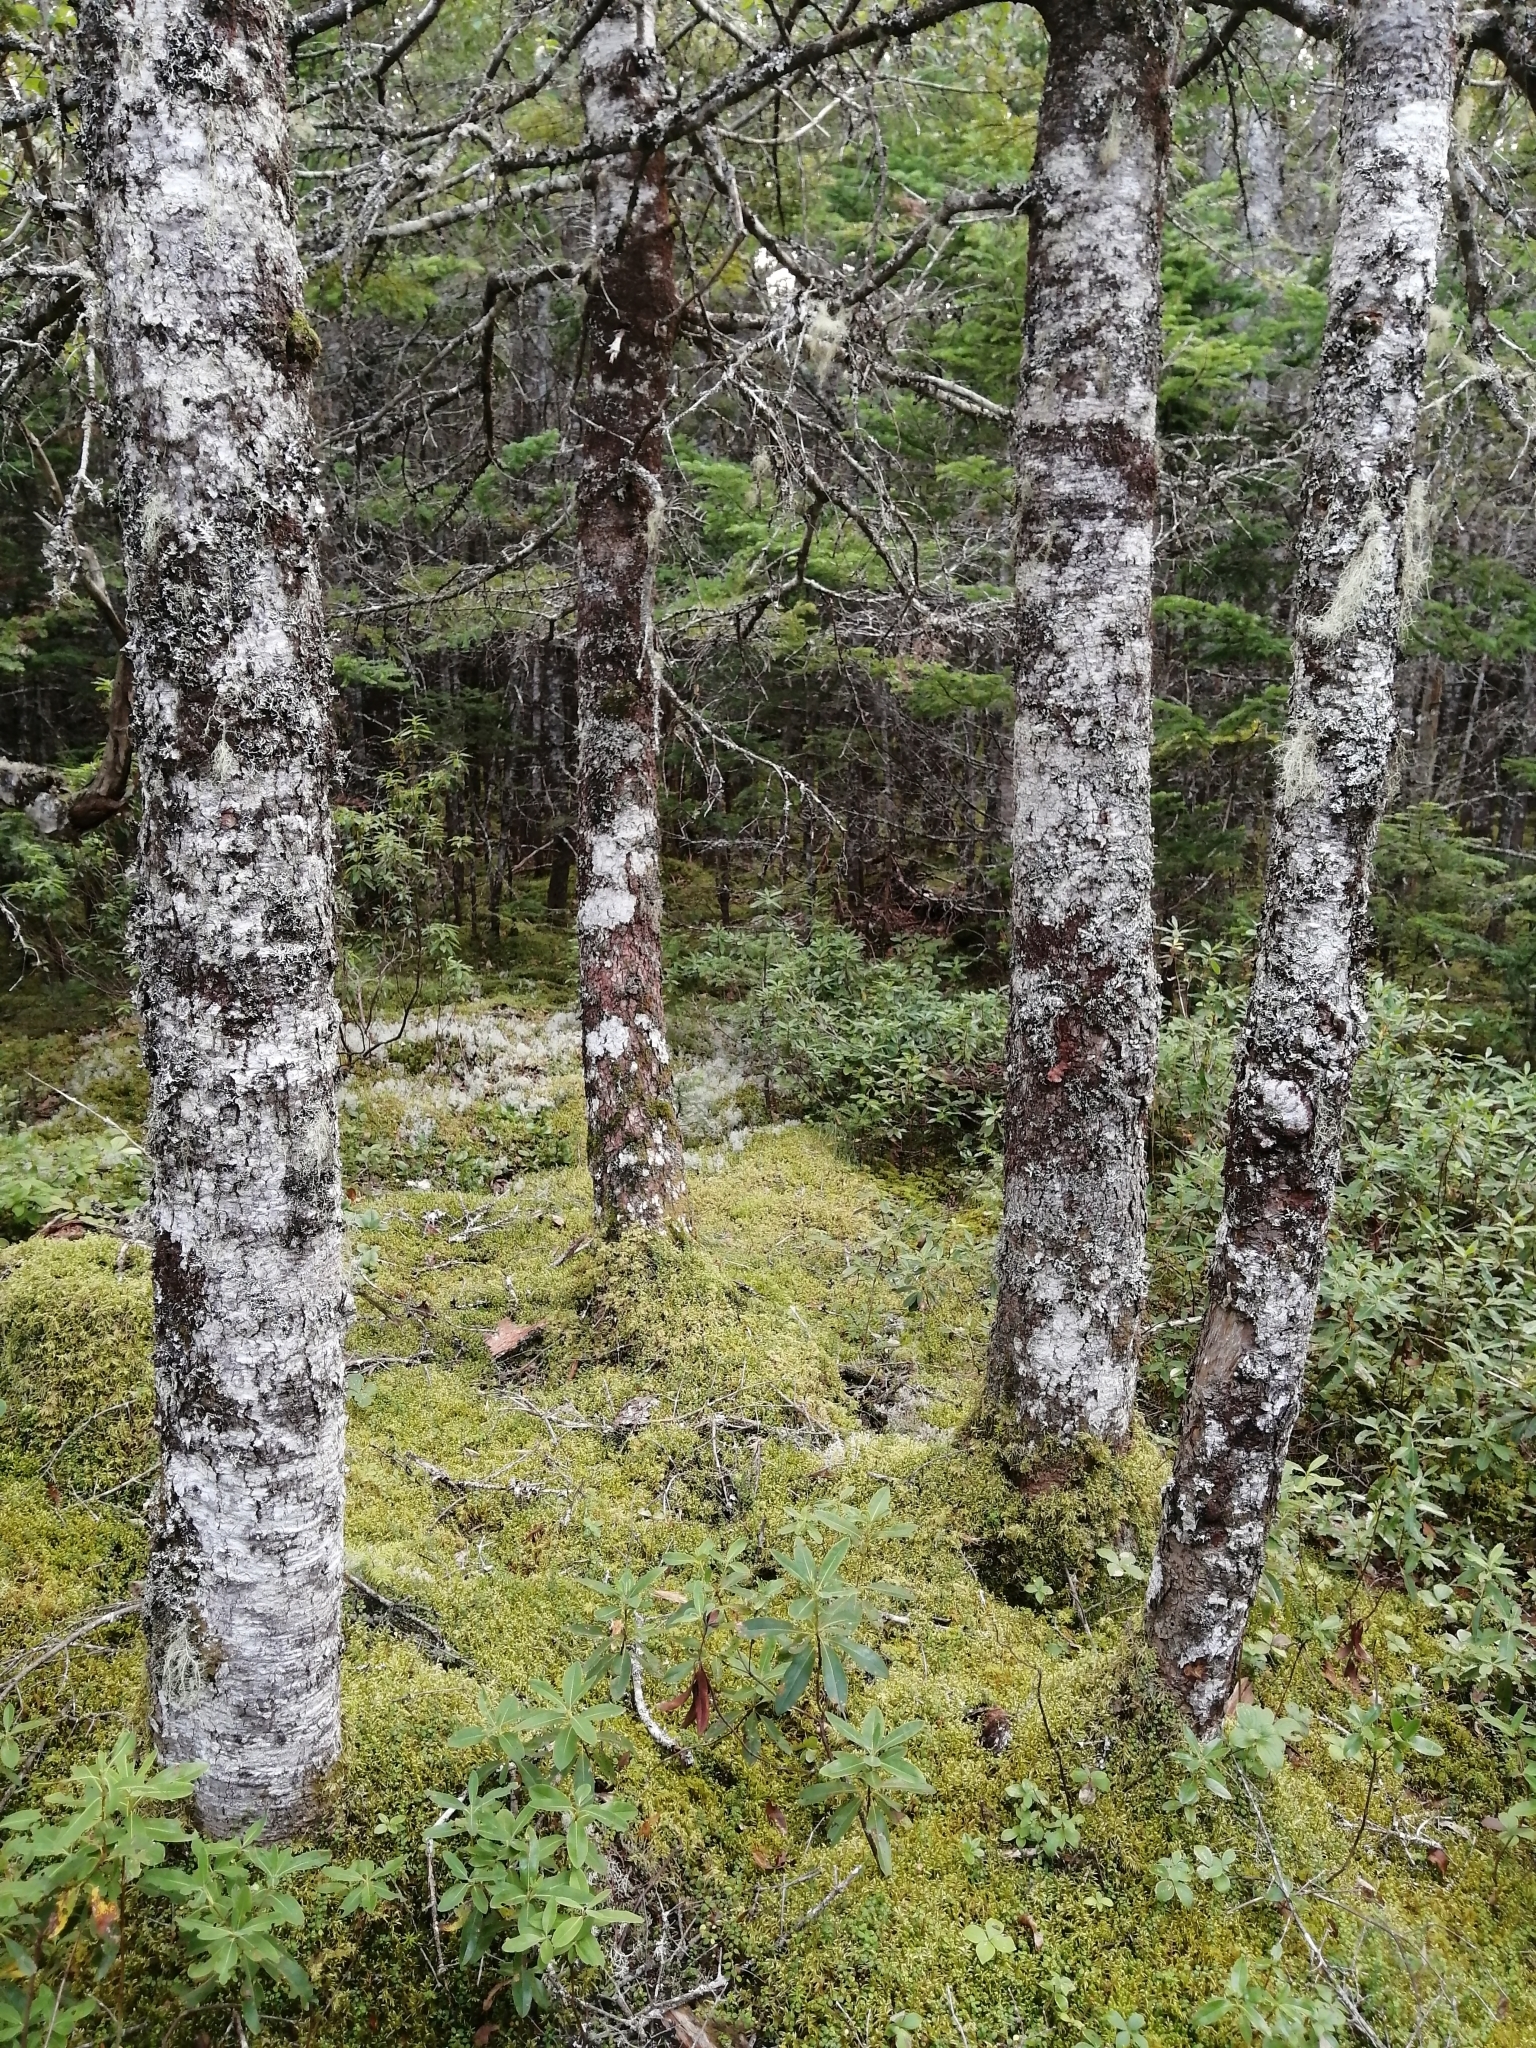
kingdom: Plantae
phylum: Tracheophyta
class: Pinopsida
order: Pinales
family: Pinaceae
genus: Abies
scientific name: Abies balsamea
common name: Balsam fir
